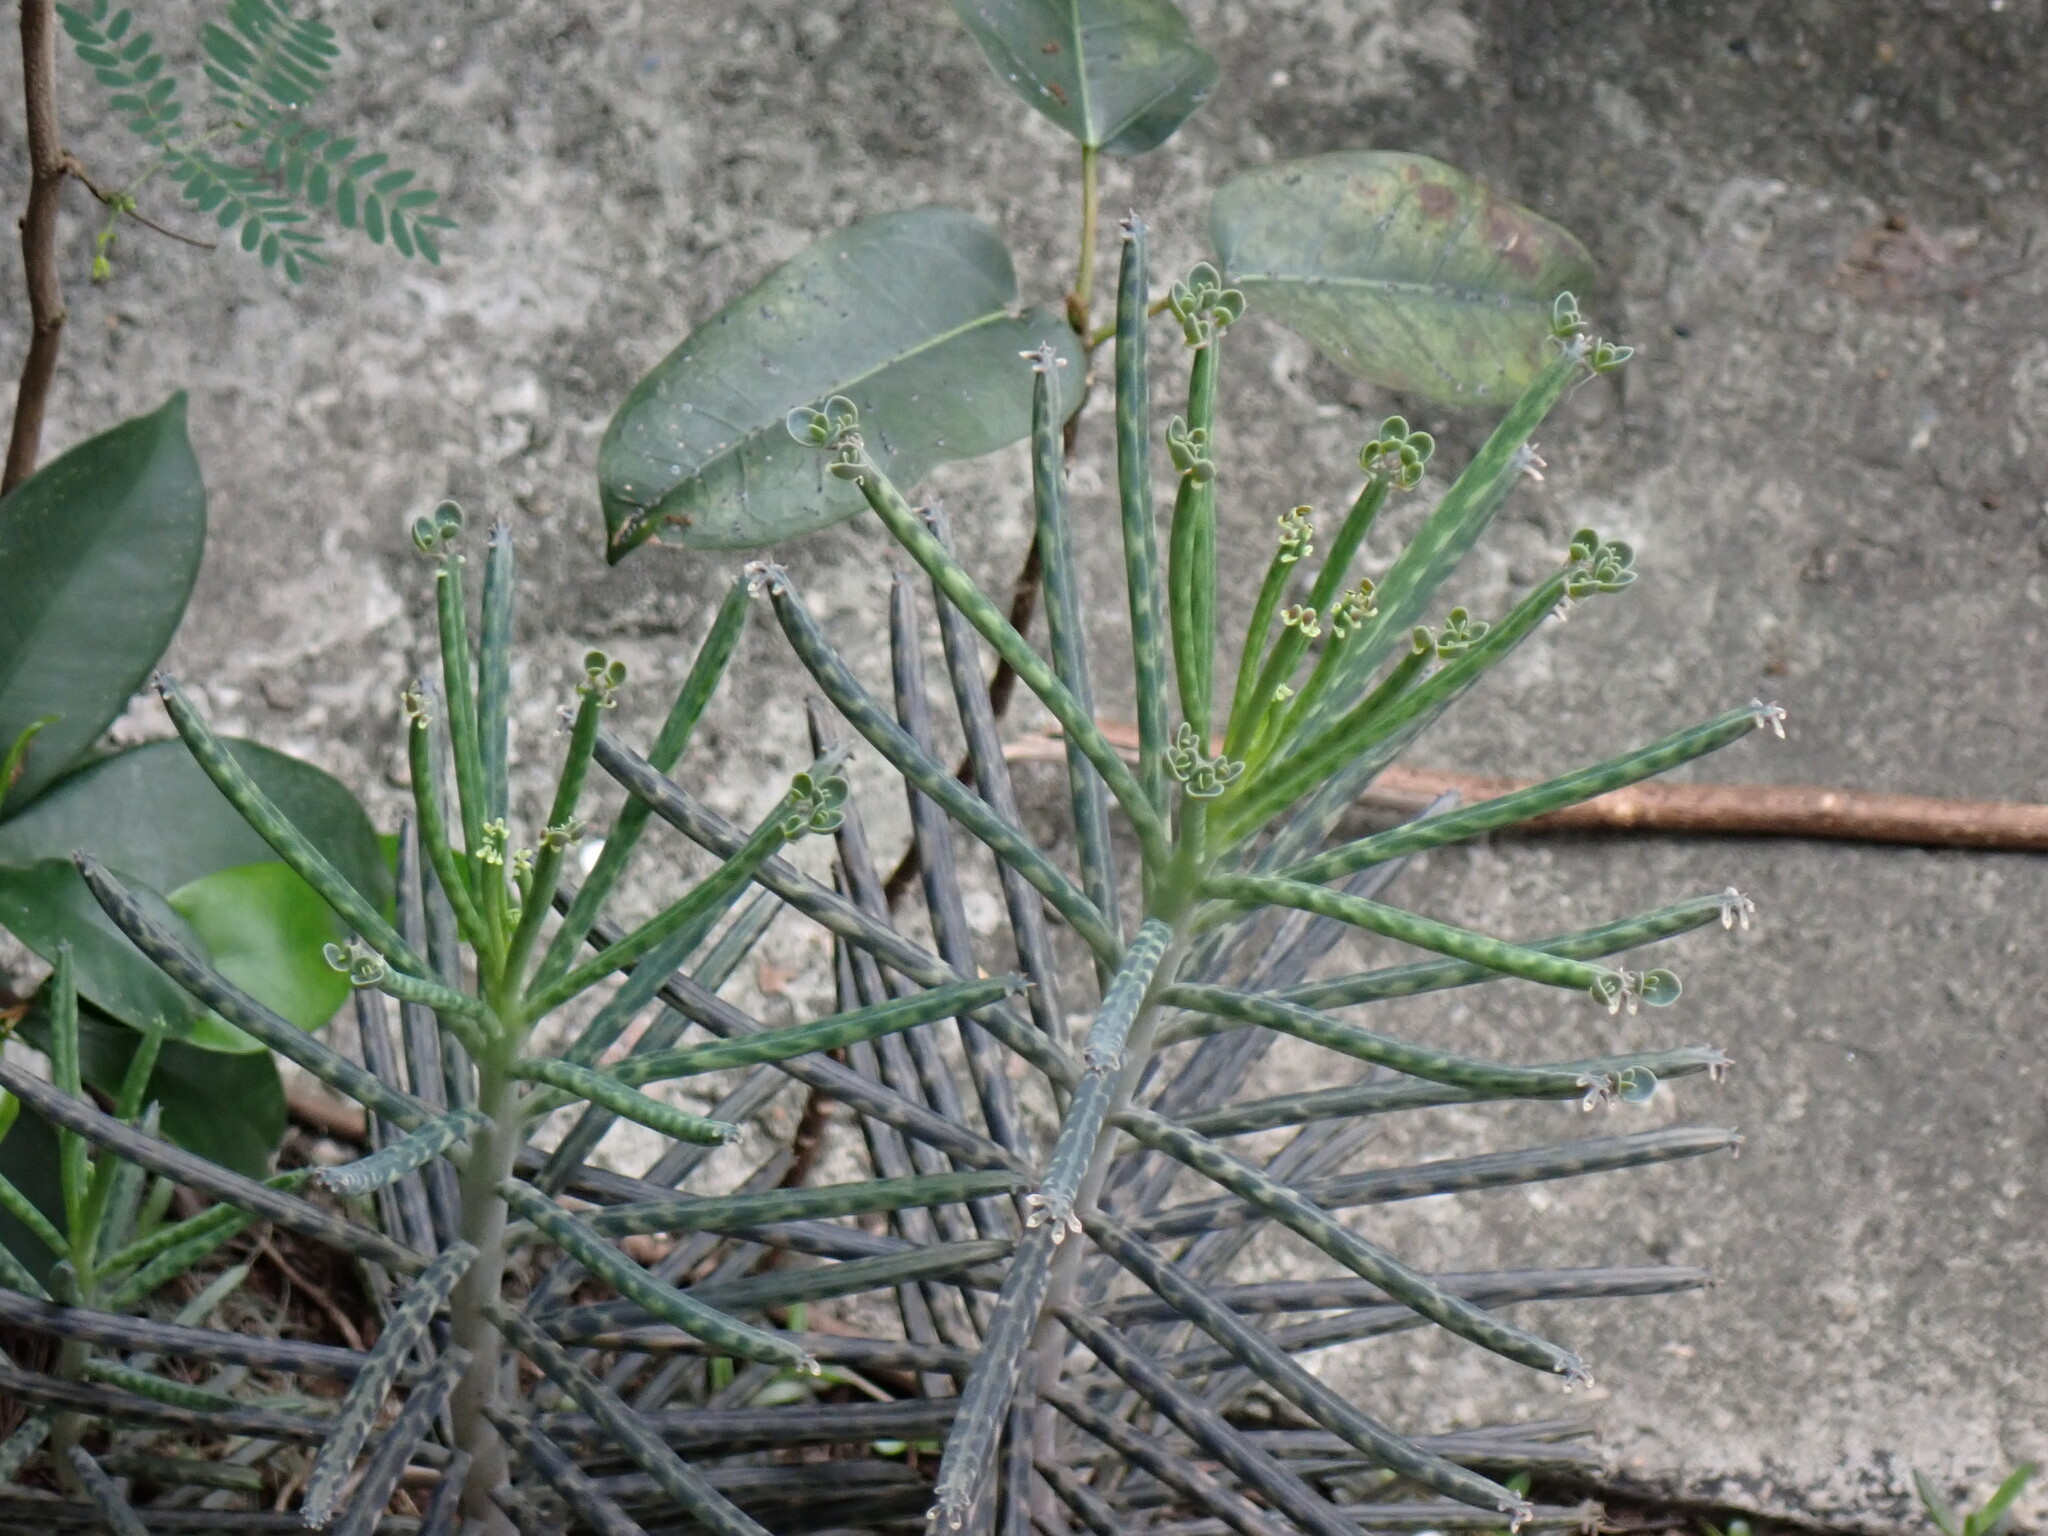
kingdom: Plantae
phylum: Tracheophyta
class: Magnoliopsida
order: Saxifragales
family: Crassulaceae
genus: Kalanchoe
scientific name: Kalanchoe delagoensis
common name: Chandelier plant
